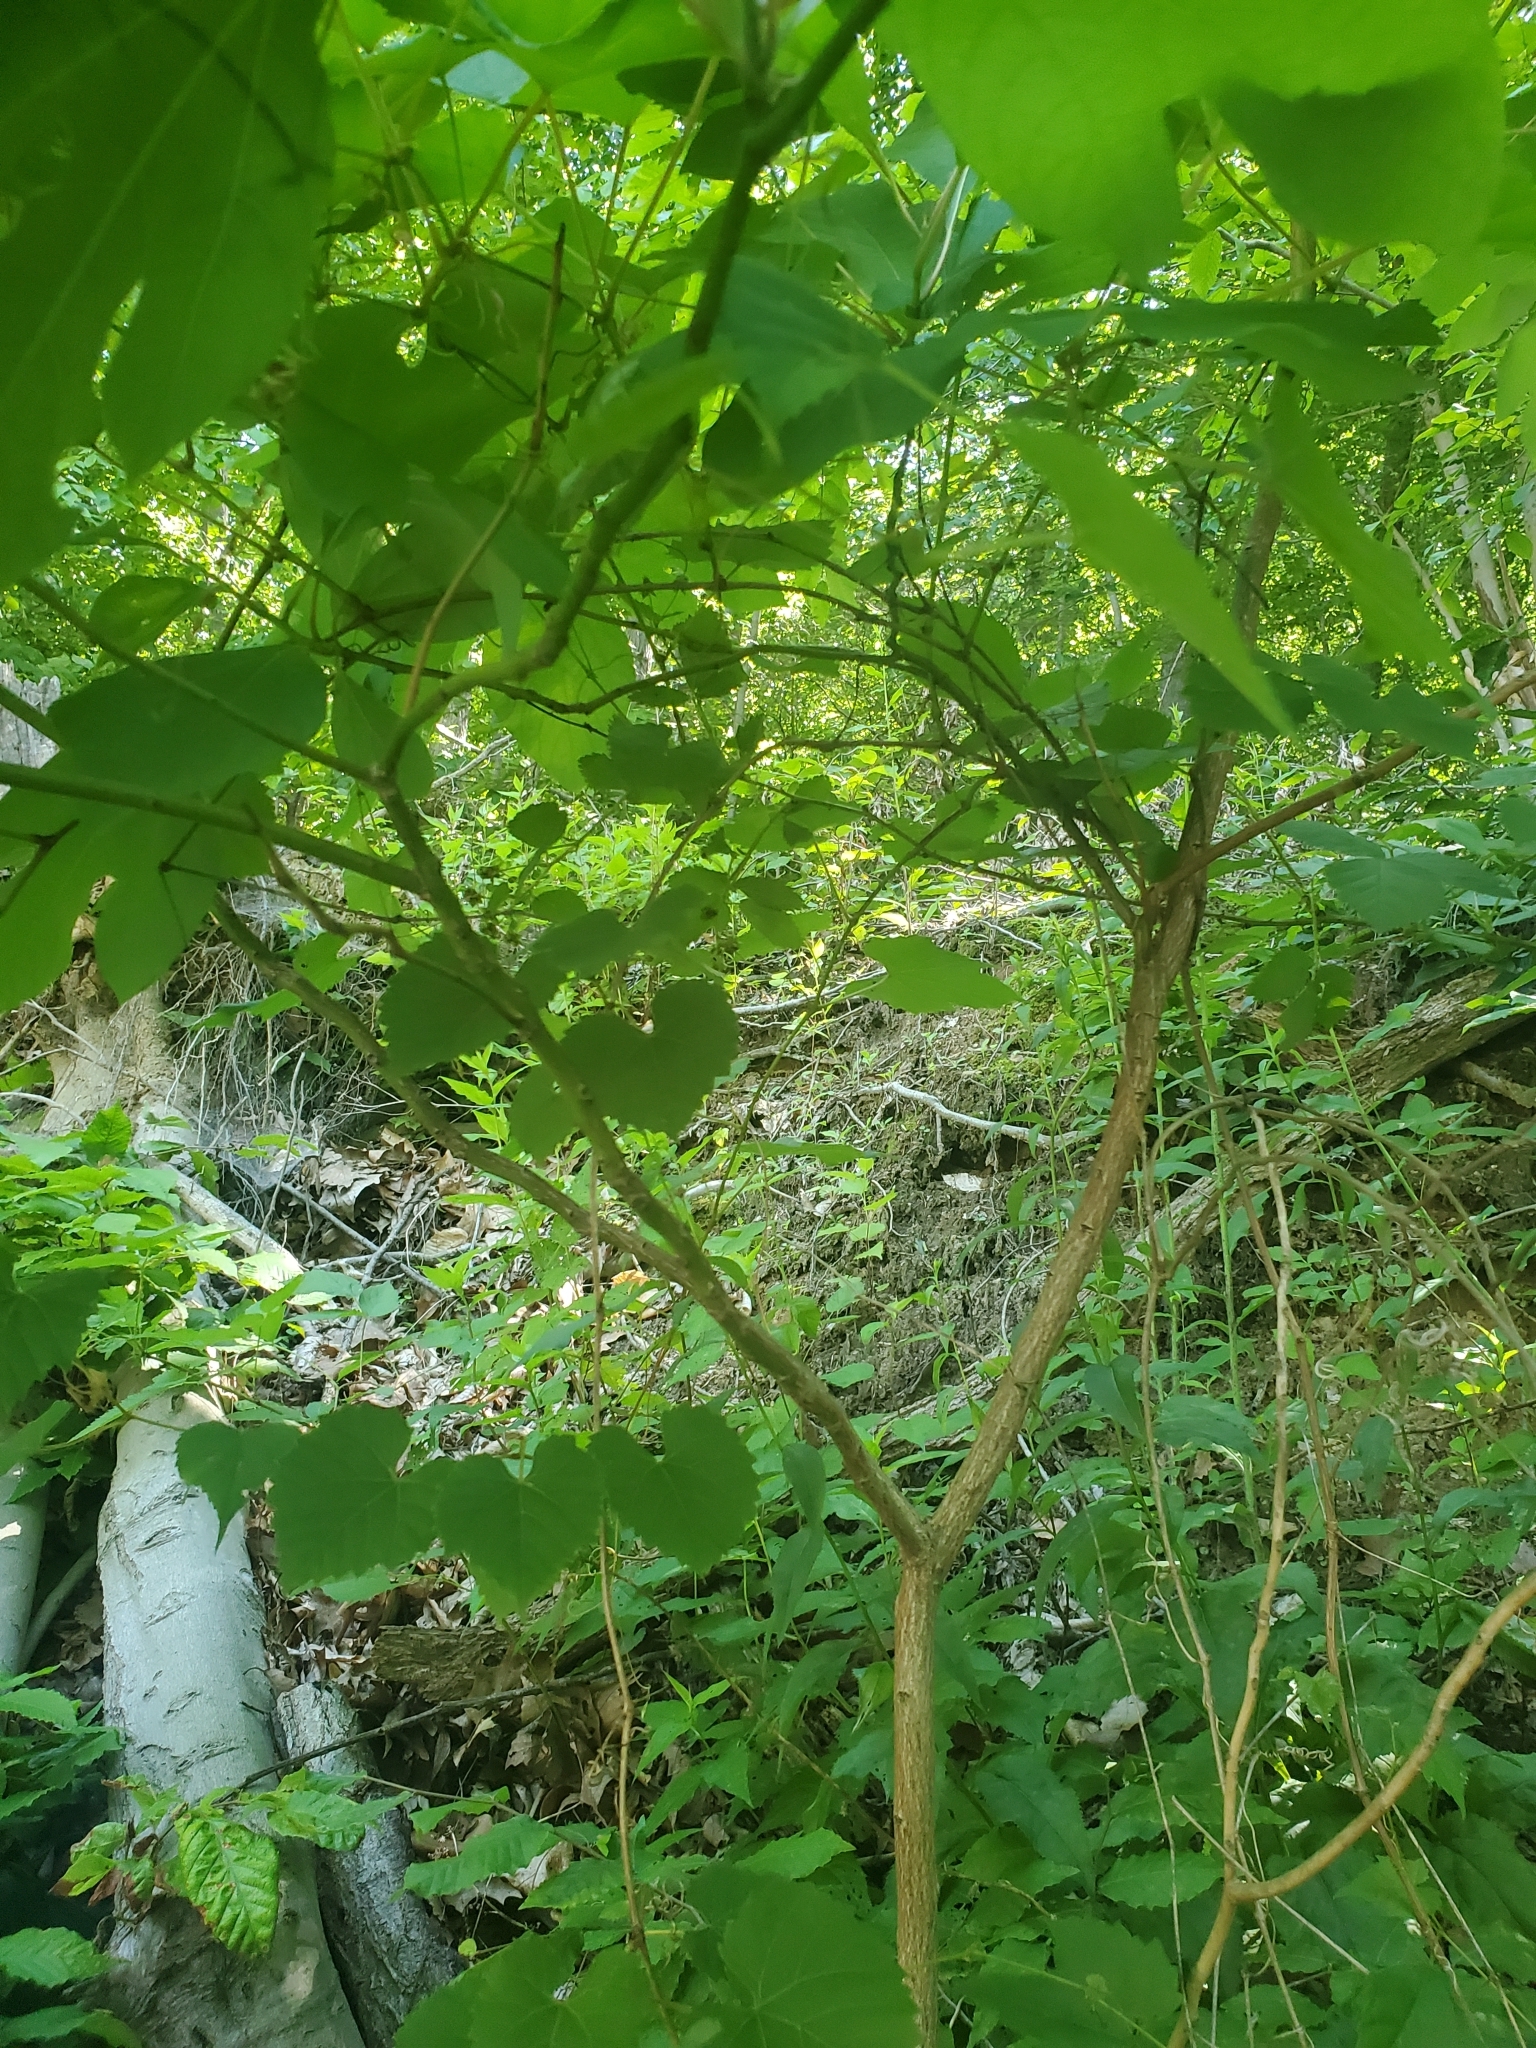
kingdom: Plantae
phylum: Tracheophyta
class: Magnoliopsida
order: Laurales
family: Lauraceae
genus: Sassafras
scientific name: Sassafras albidum
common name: Sassafras
